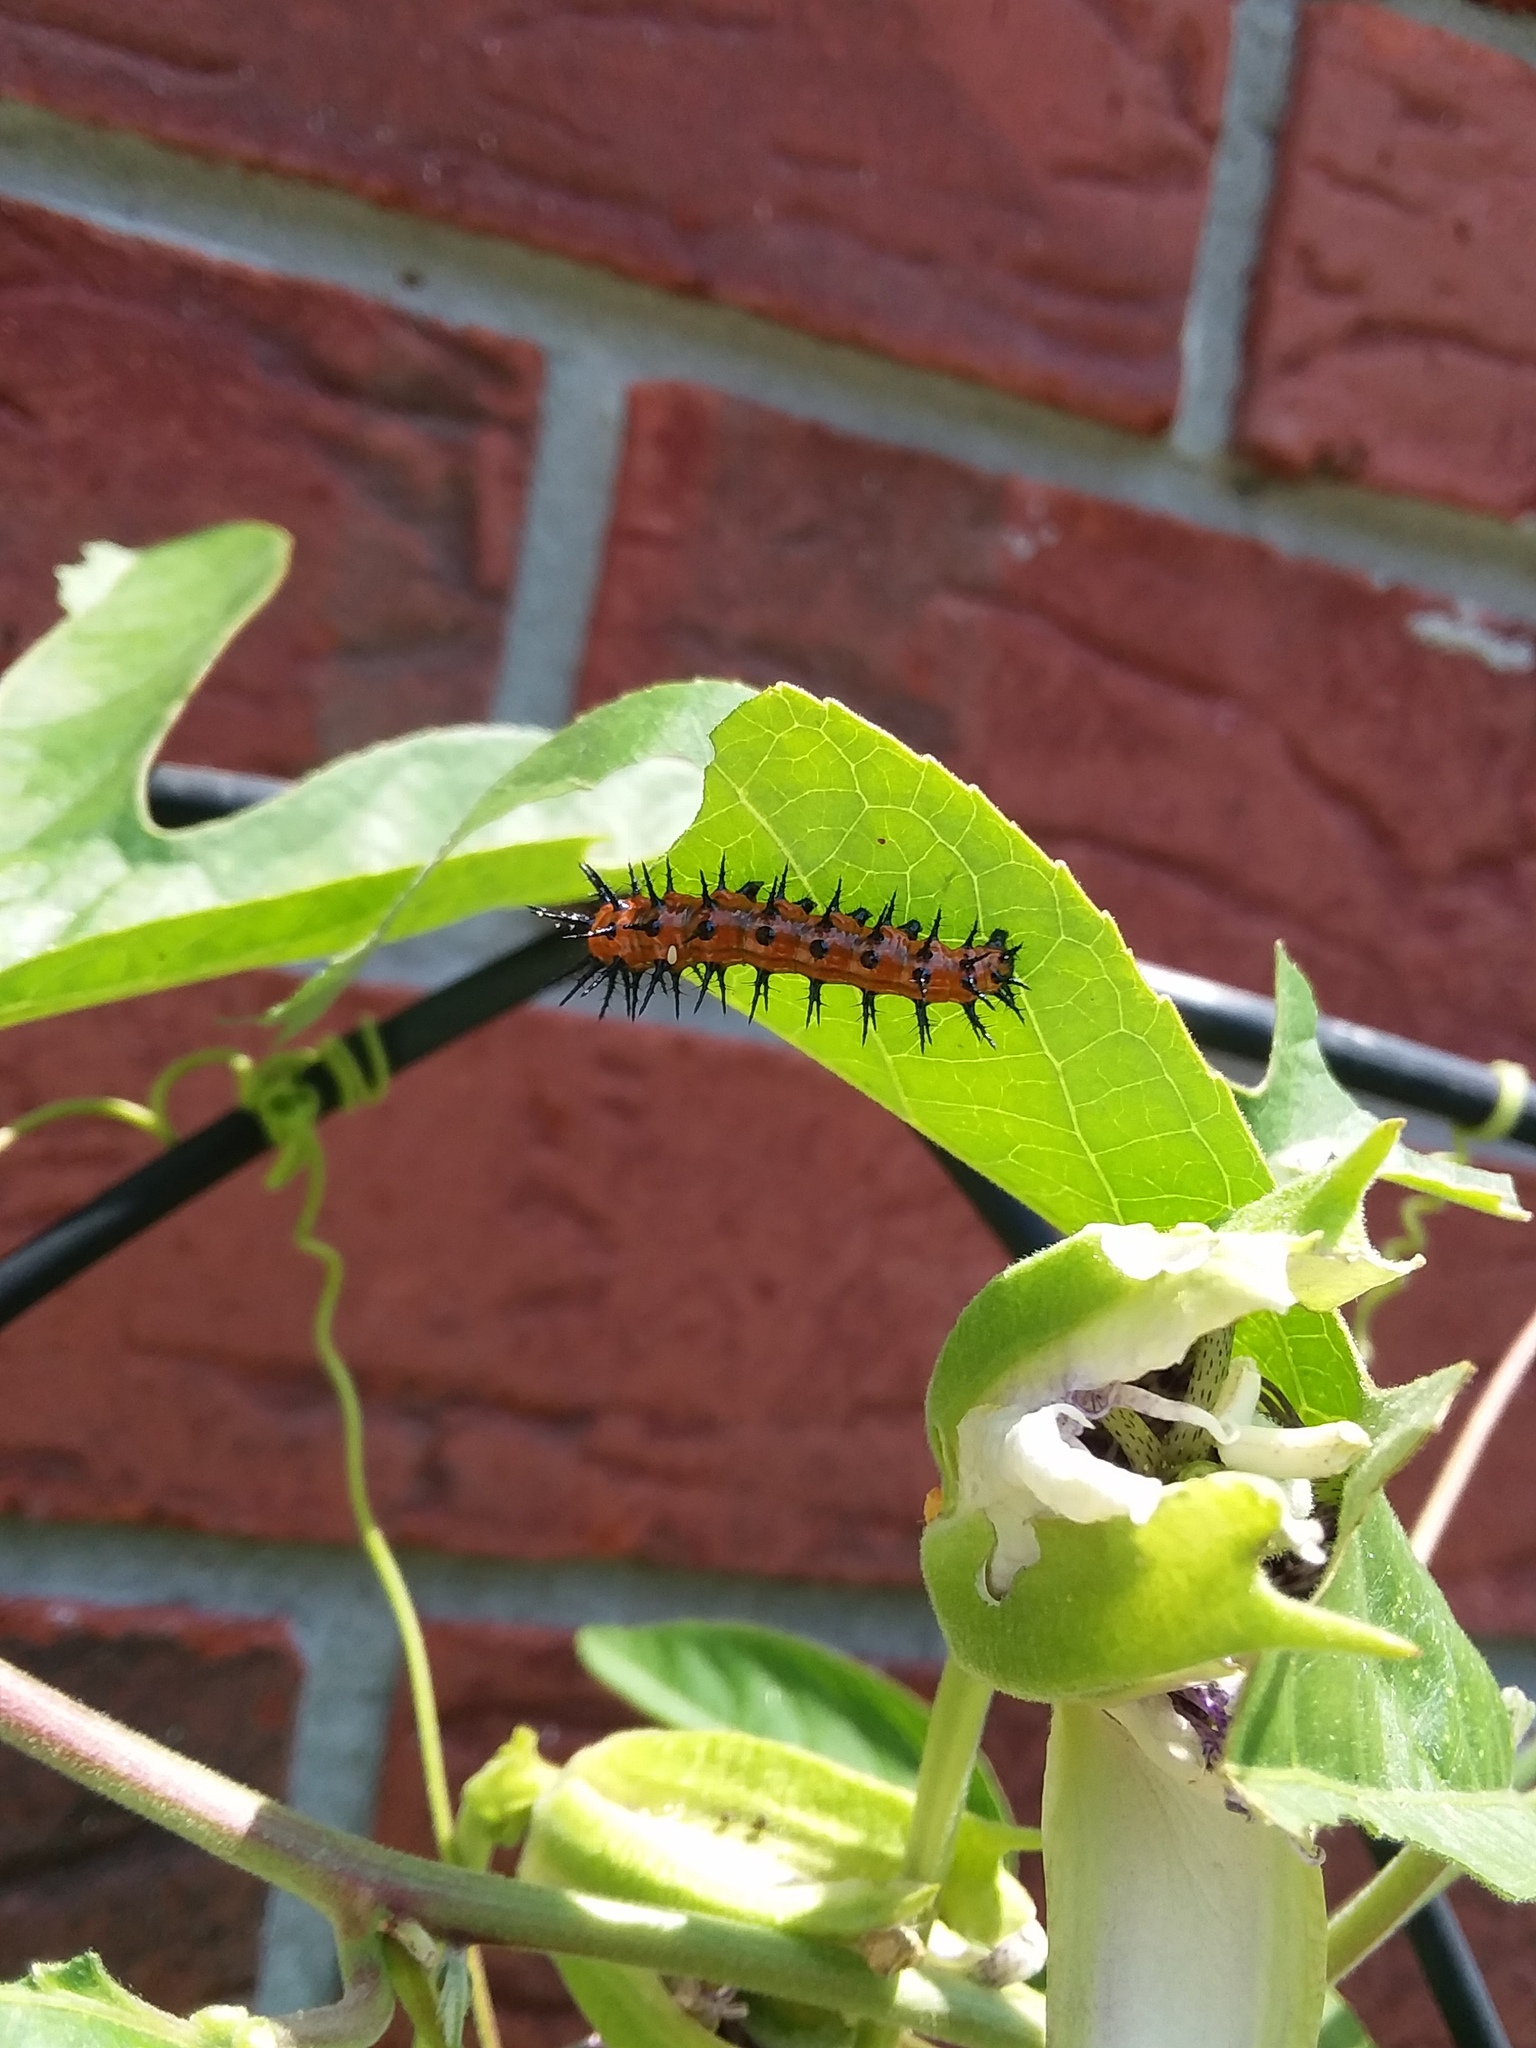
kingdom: Animalia
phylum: Arthropoda
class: Insecta
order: Lepidoptera
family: Nymphalidae
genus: Dione
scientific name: Dione vanillae
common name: Gulf fritillary
